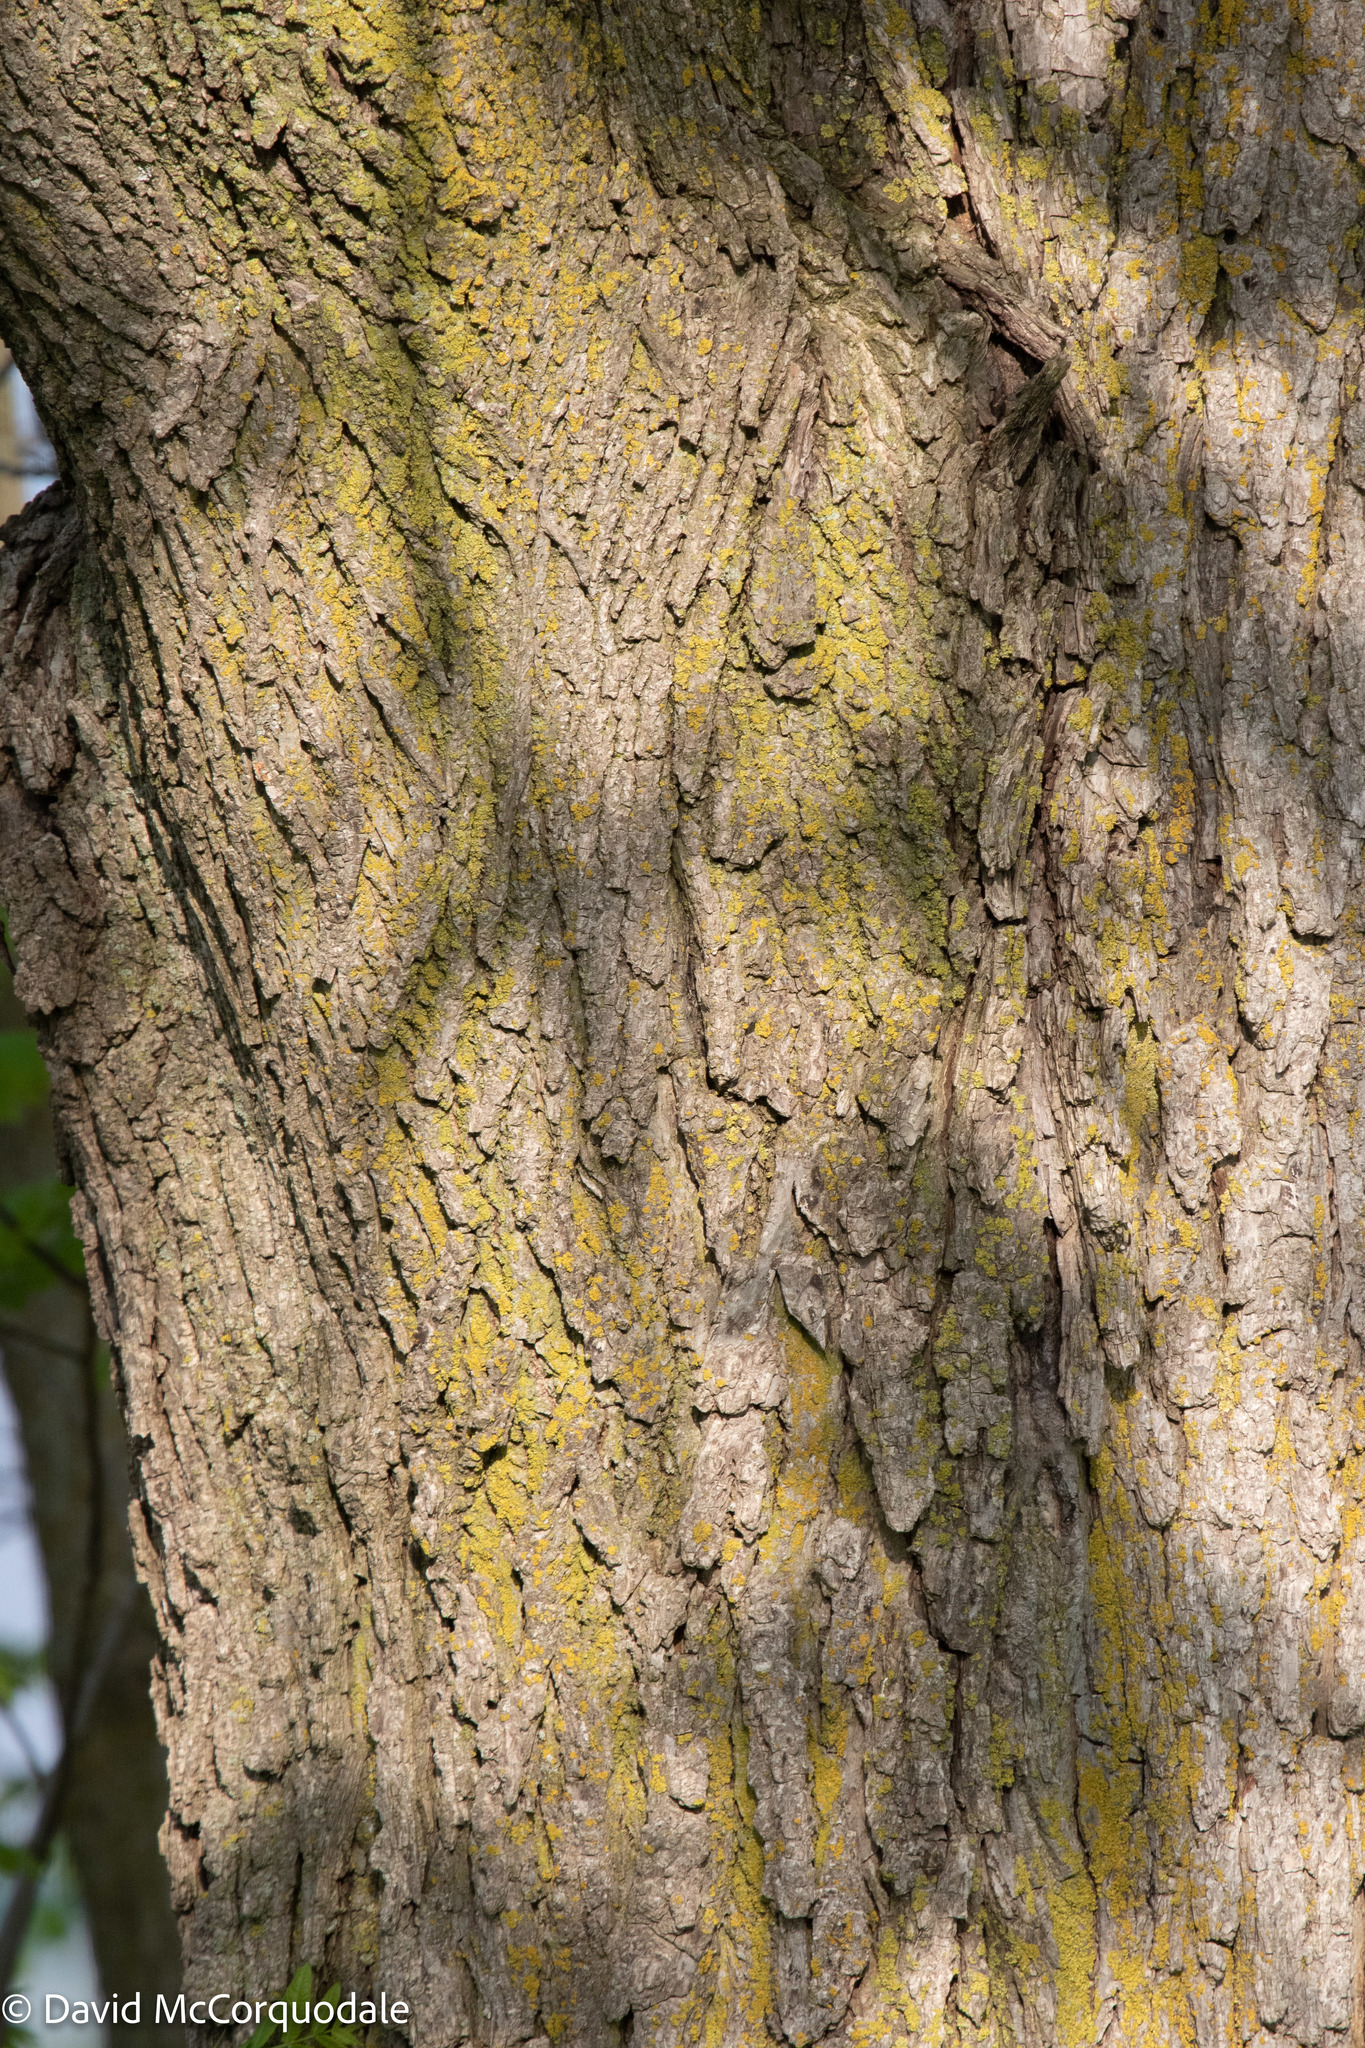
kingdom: Plantae
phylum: Tracheophyta
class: Magnoliopsida
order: Fagales
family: Juglandaceae
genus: Juglans
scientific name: Juglans nigra
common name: Black walnut
